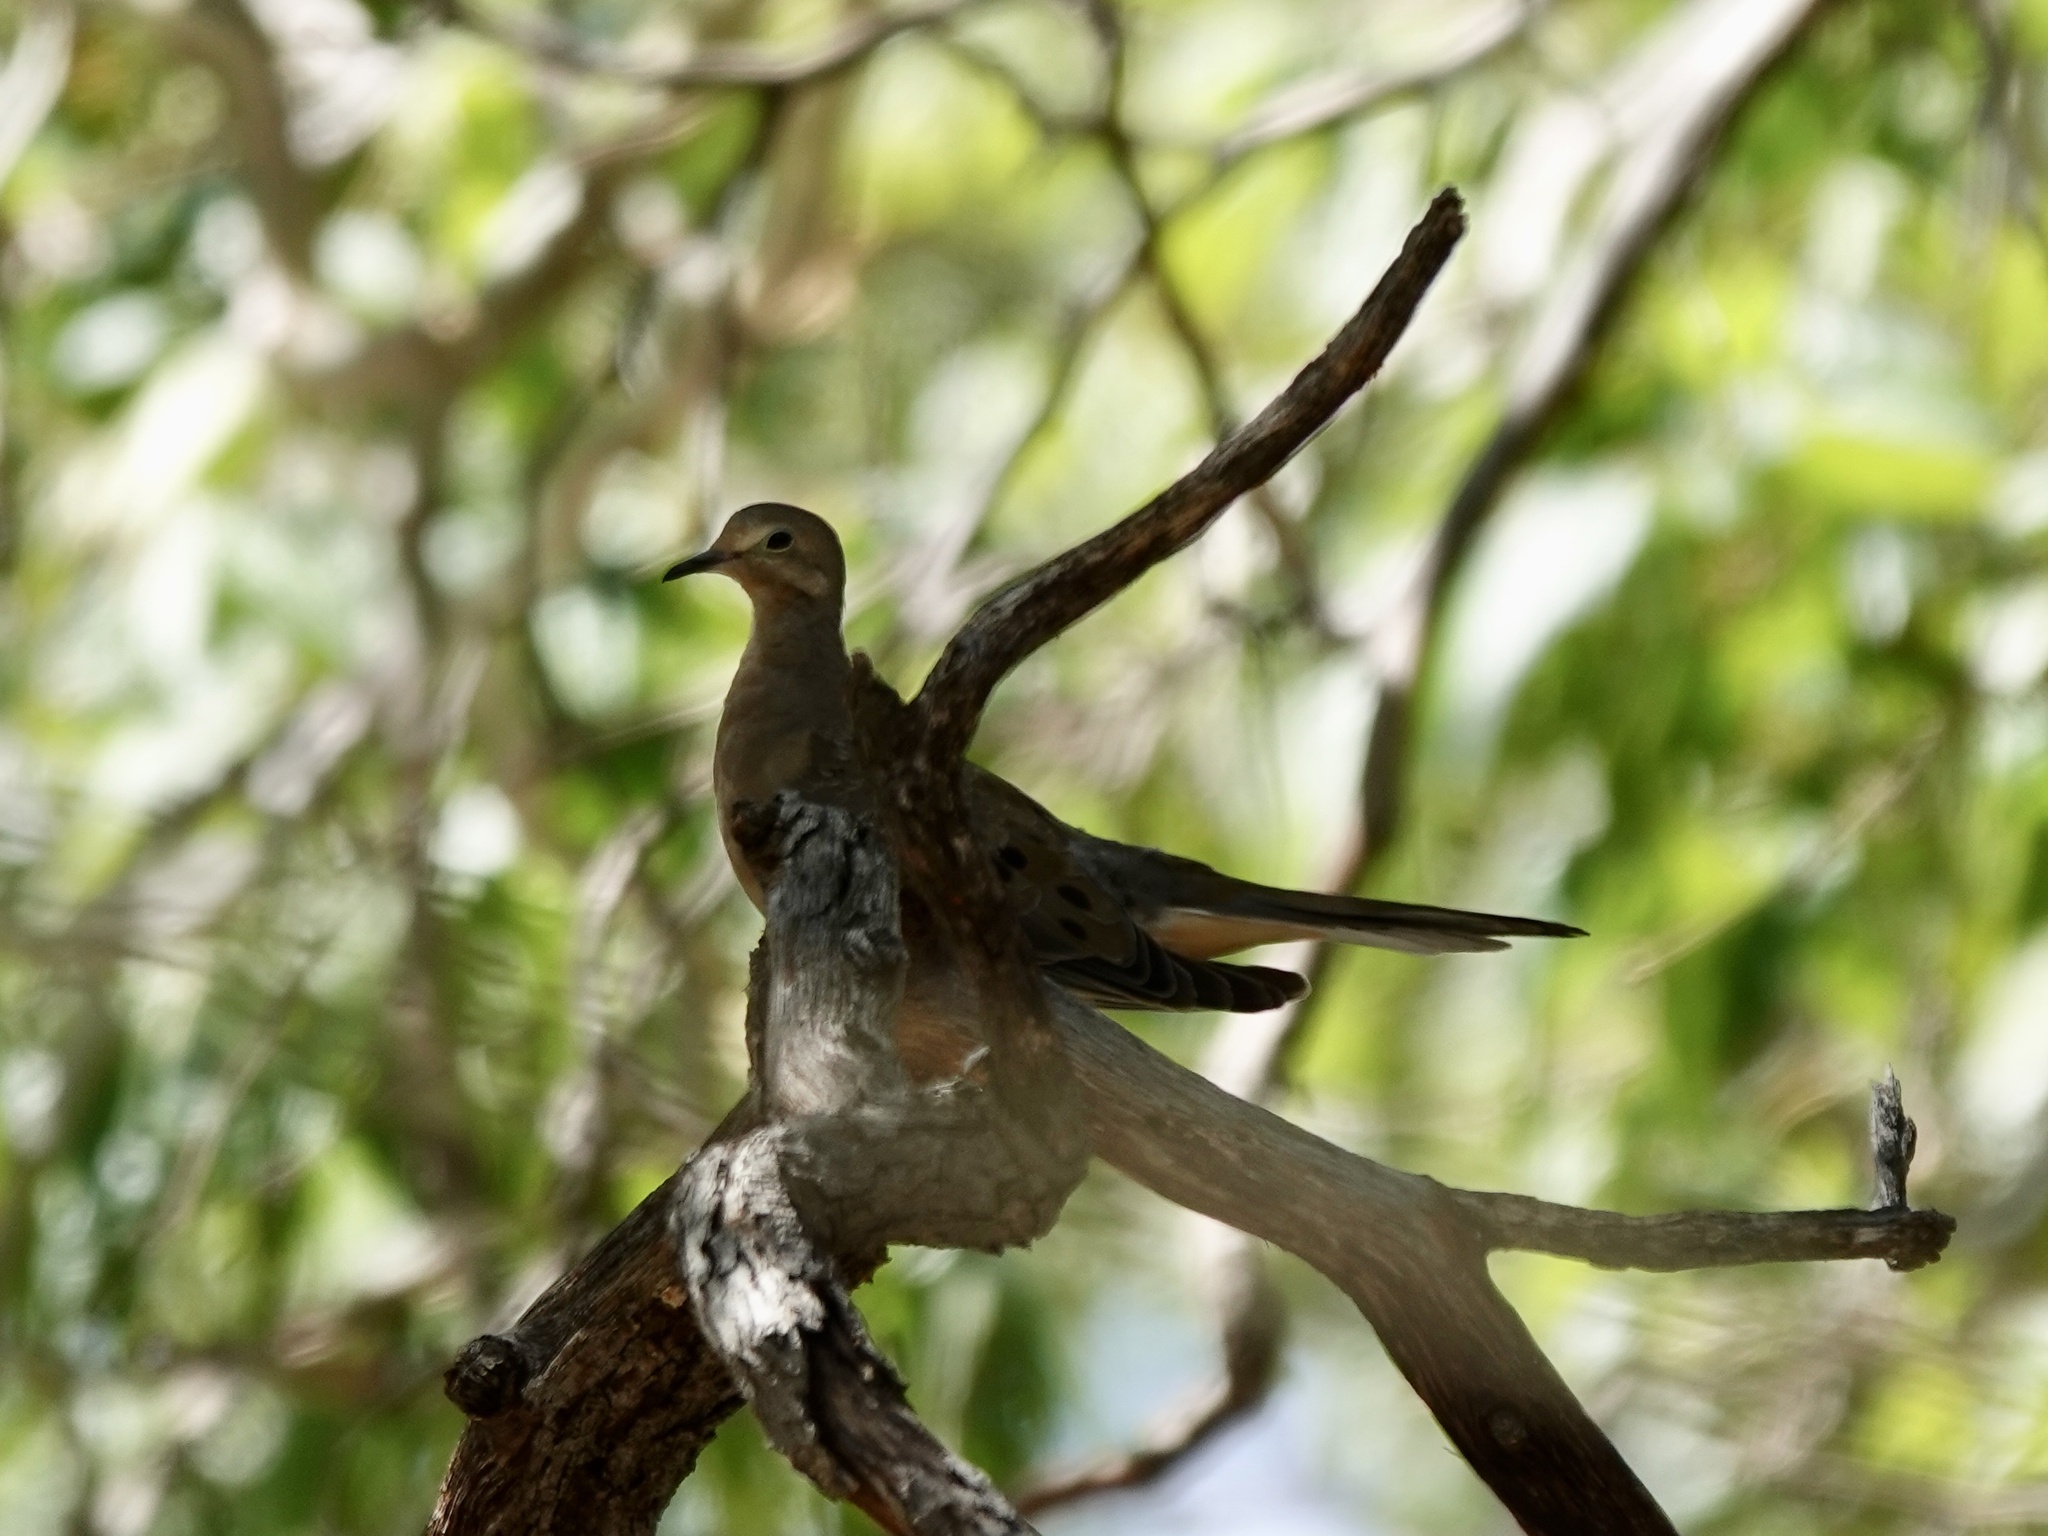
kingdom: Animalia
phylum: Chordata
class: Aves
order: Columbiformes
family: Columbidae
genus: Zenaida
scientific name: Zenaida macroura
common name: Mourning dove
